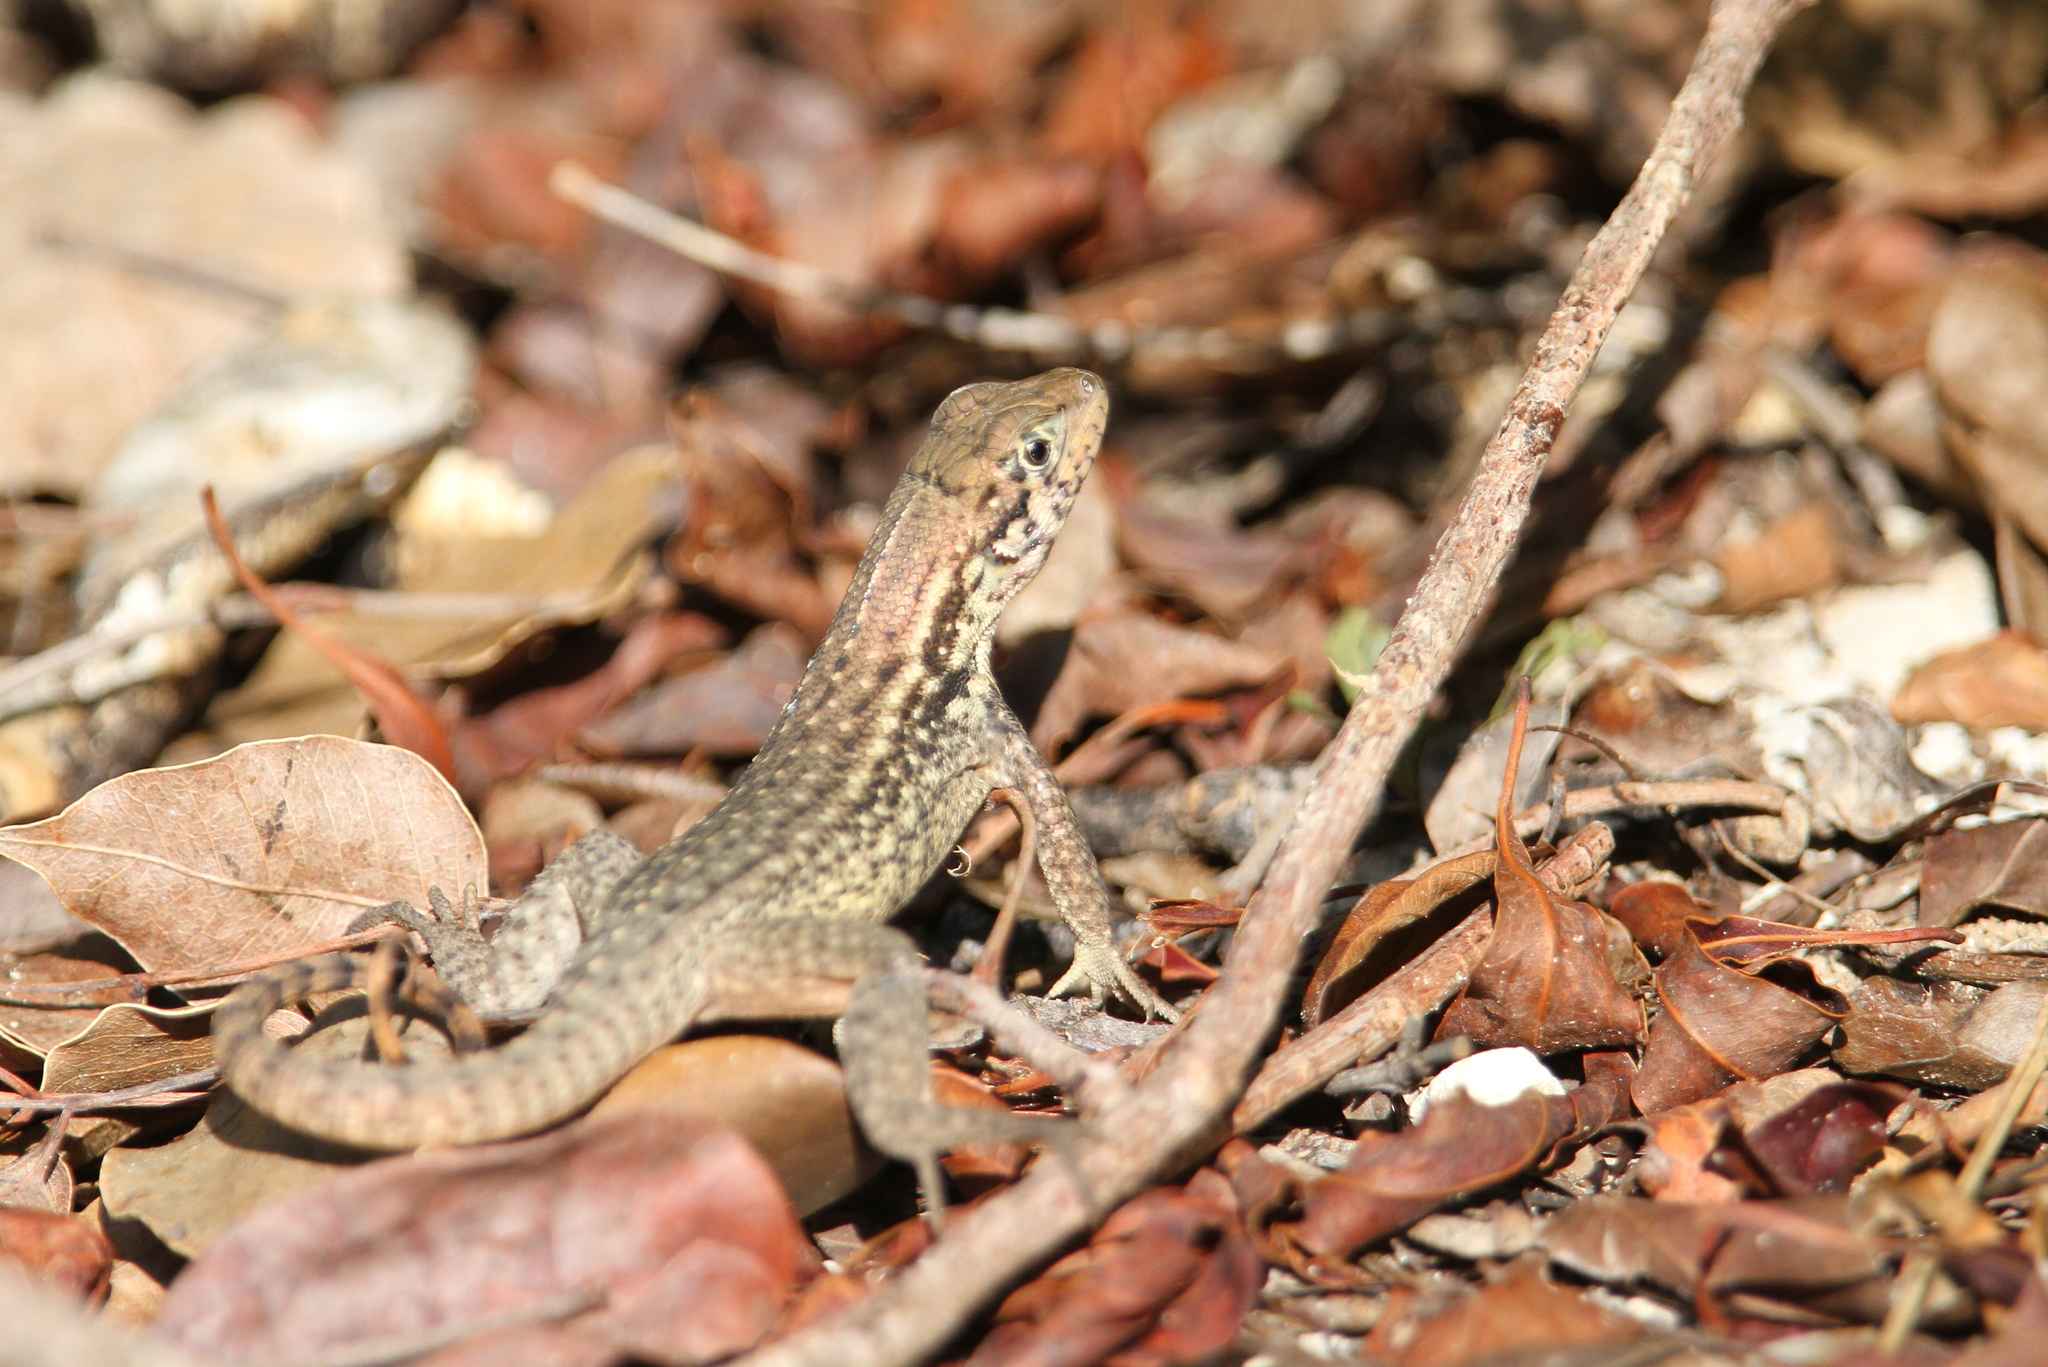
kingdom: Animalia
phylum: Chordata
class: Squamata
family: Leiocephalidae
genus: Leiocephalus
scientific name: Leiocephalus carinatus
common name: Northern curly-tailed lizard
